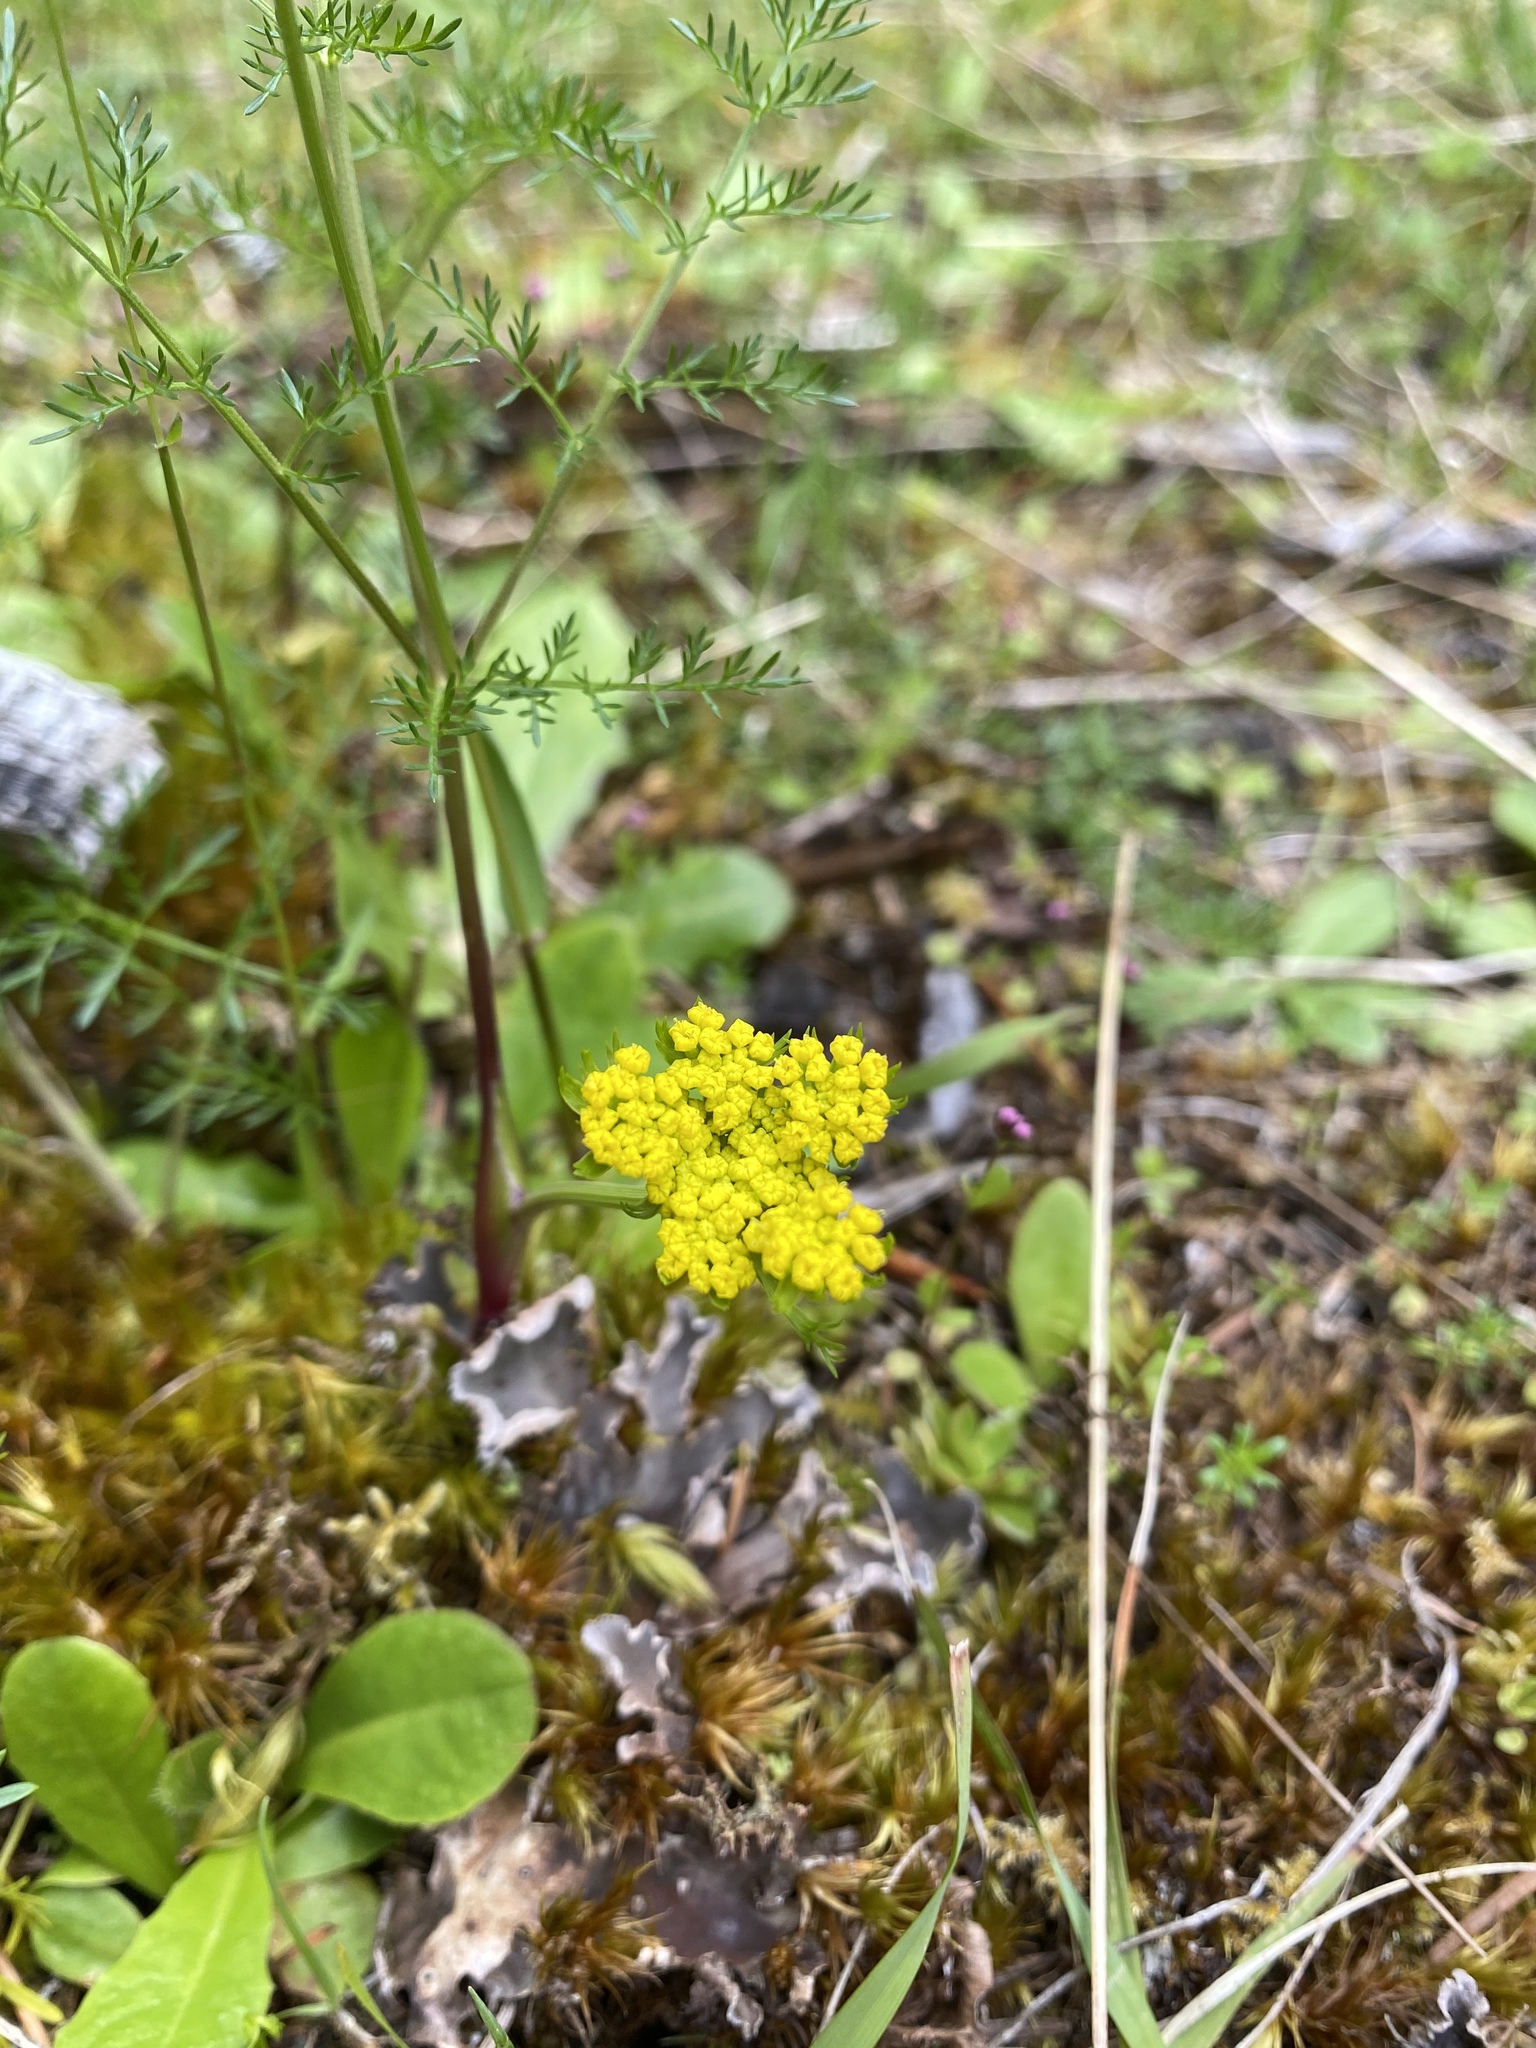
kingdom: Plantae
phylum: Tracheophyta
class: Magnoliopsida
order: Apiales
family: Apiaceae
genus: Lomatium
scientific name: Lomatium utriculatum
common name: Fine-leaf desert-parsley
